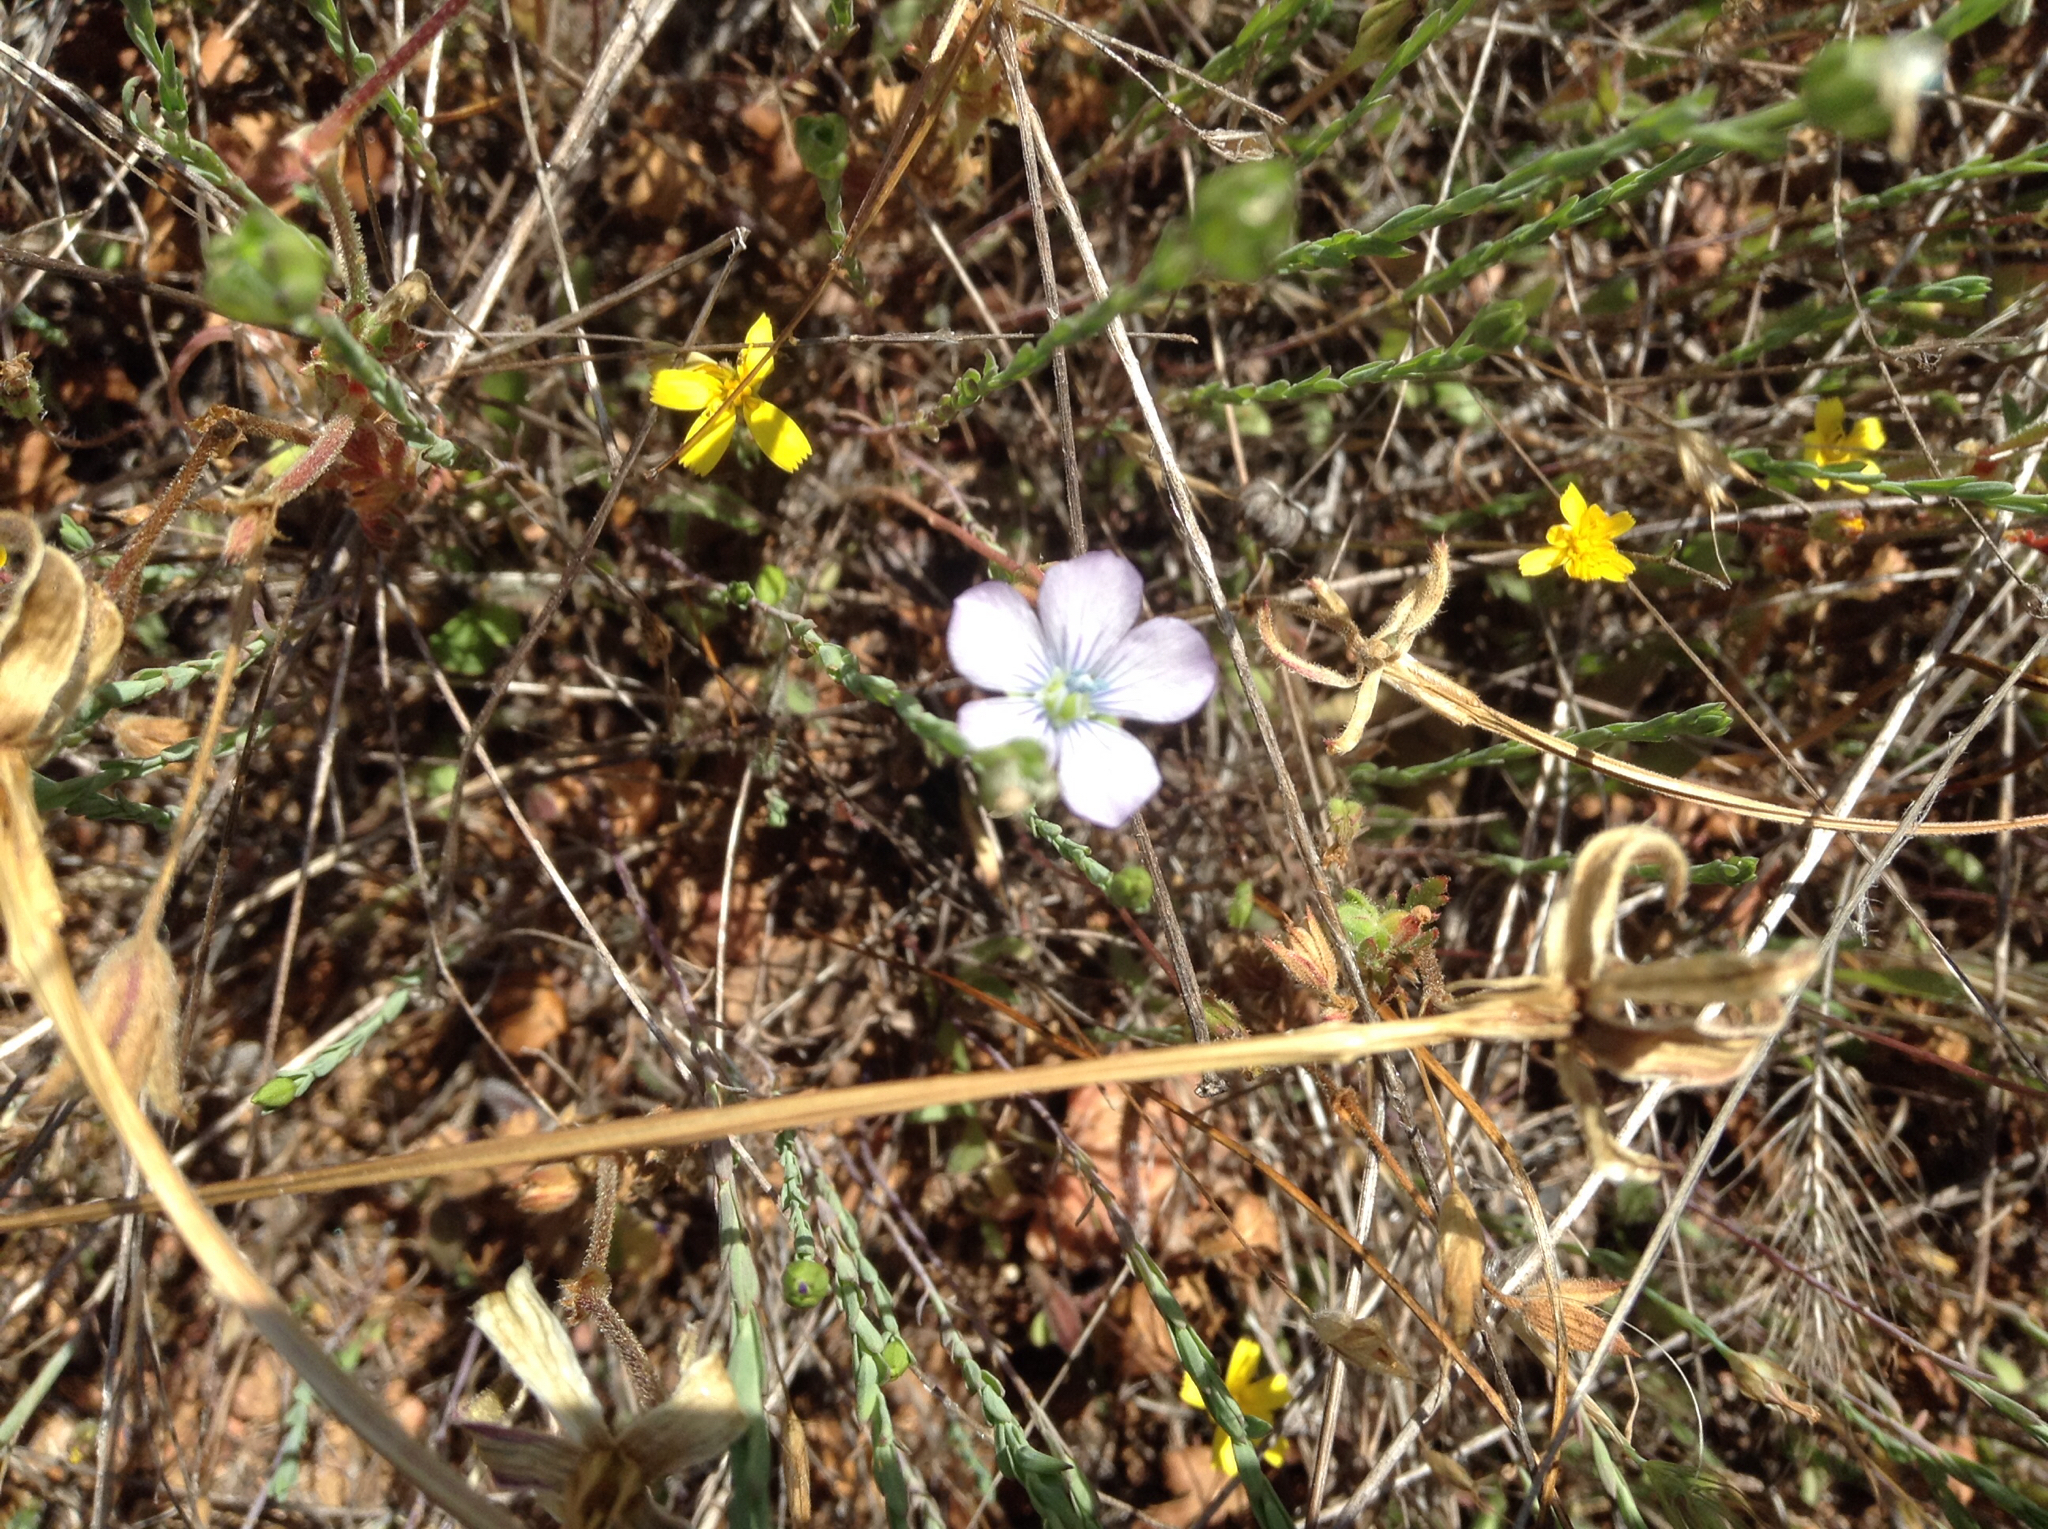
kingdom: Plantae
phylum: Tracheophyta
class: Magnoliopsida
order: Malpighiales
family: Linaceae
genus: Linum
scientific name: Linum bienne
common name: Pale flax
